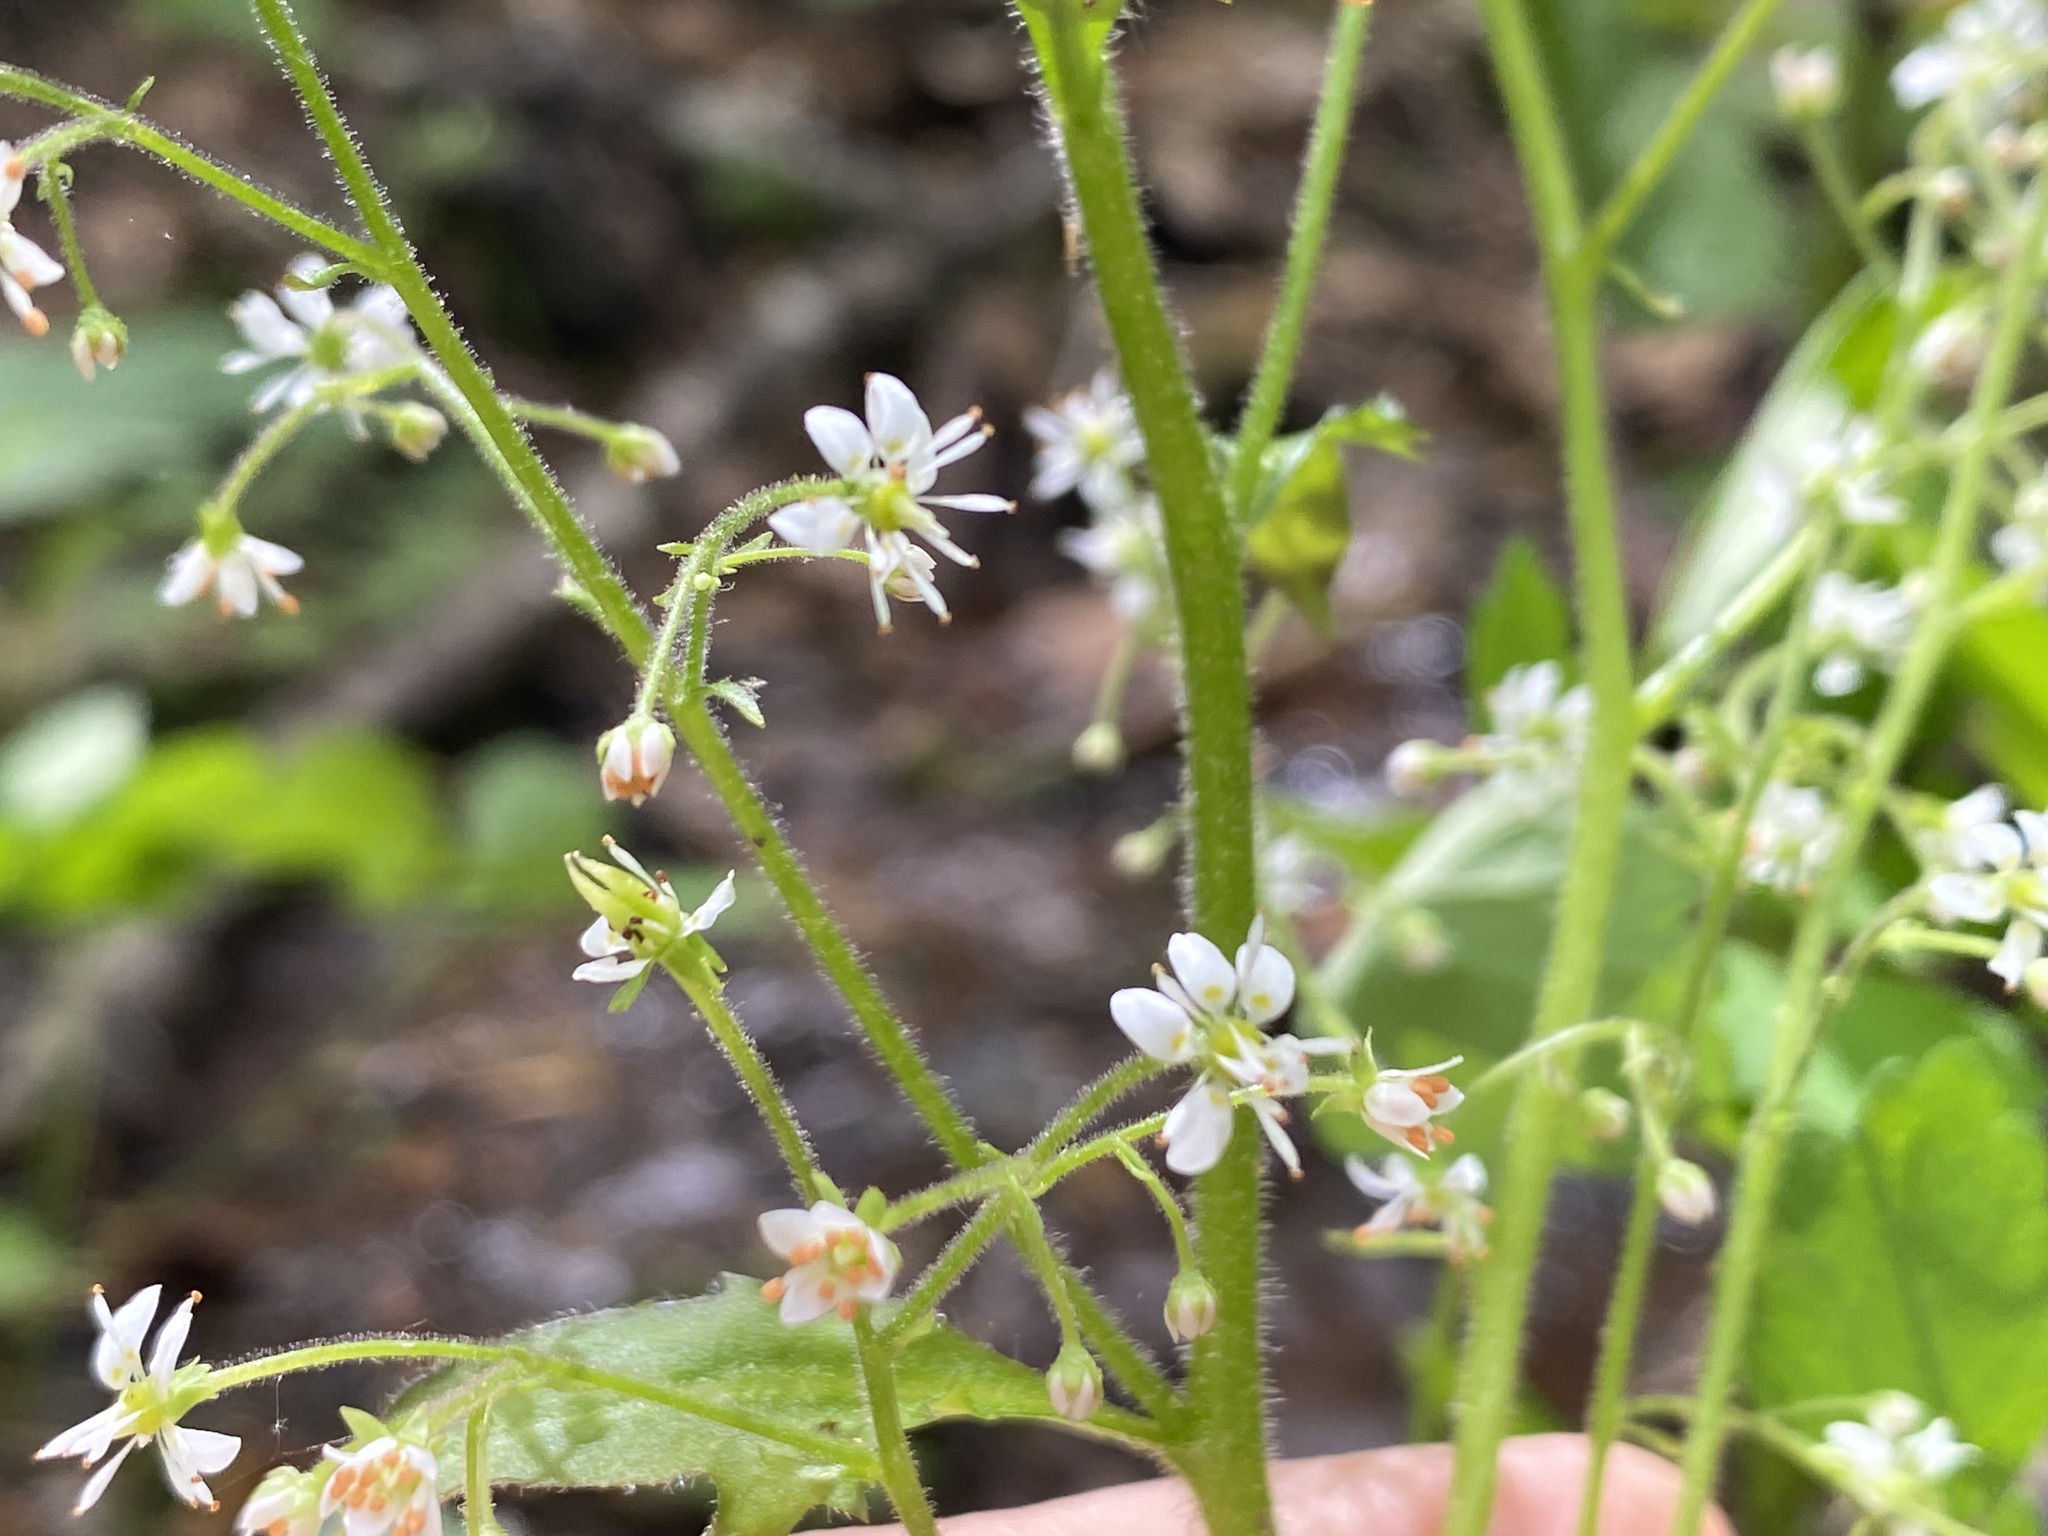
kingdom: Plantae
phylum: Tracheophyta
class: Magnoliopsida
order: Saxifragales
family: Saxifragaceae
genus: Micranthes
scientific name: Micranthes micranthidifolia
